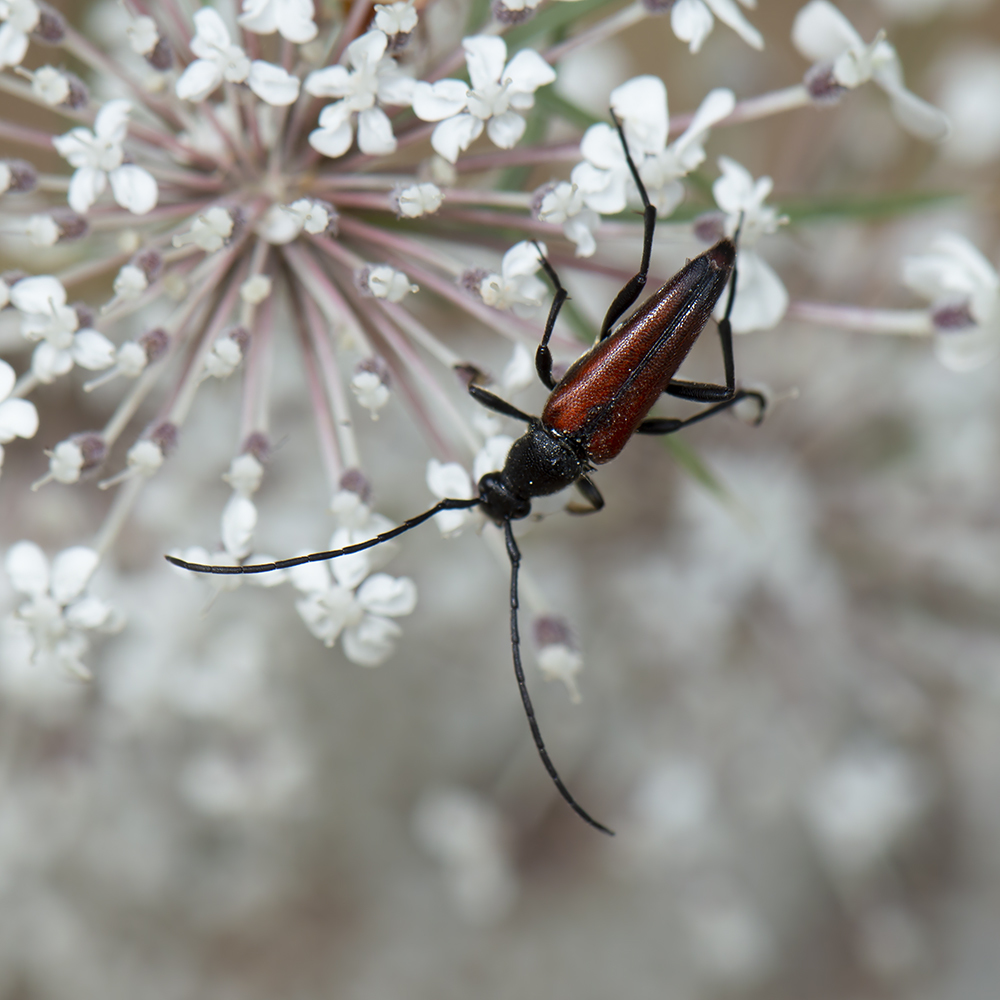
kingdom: Animalia
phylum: Arthropoda
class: Insecta
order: Coleoptera
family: Cerambycidae
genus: Stenurella
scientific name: Stenurella bifasciata
